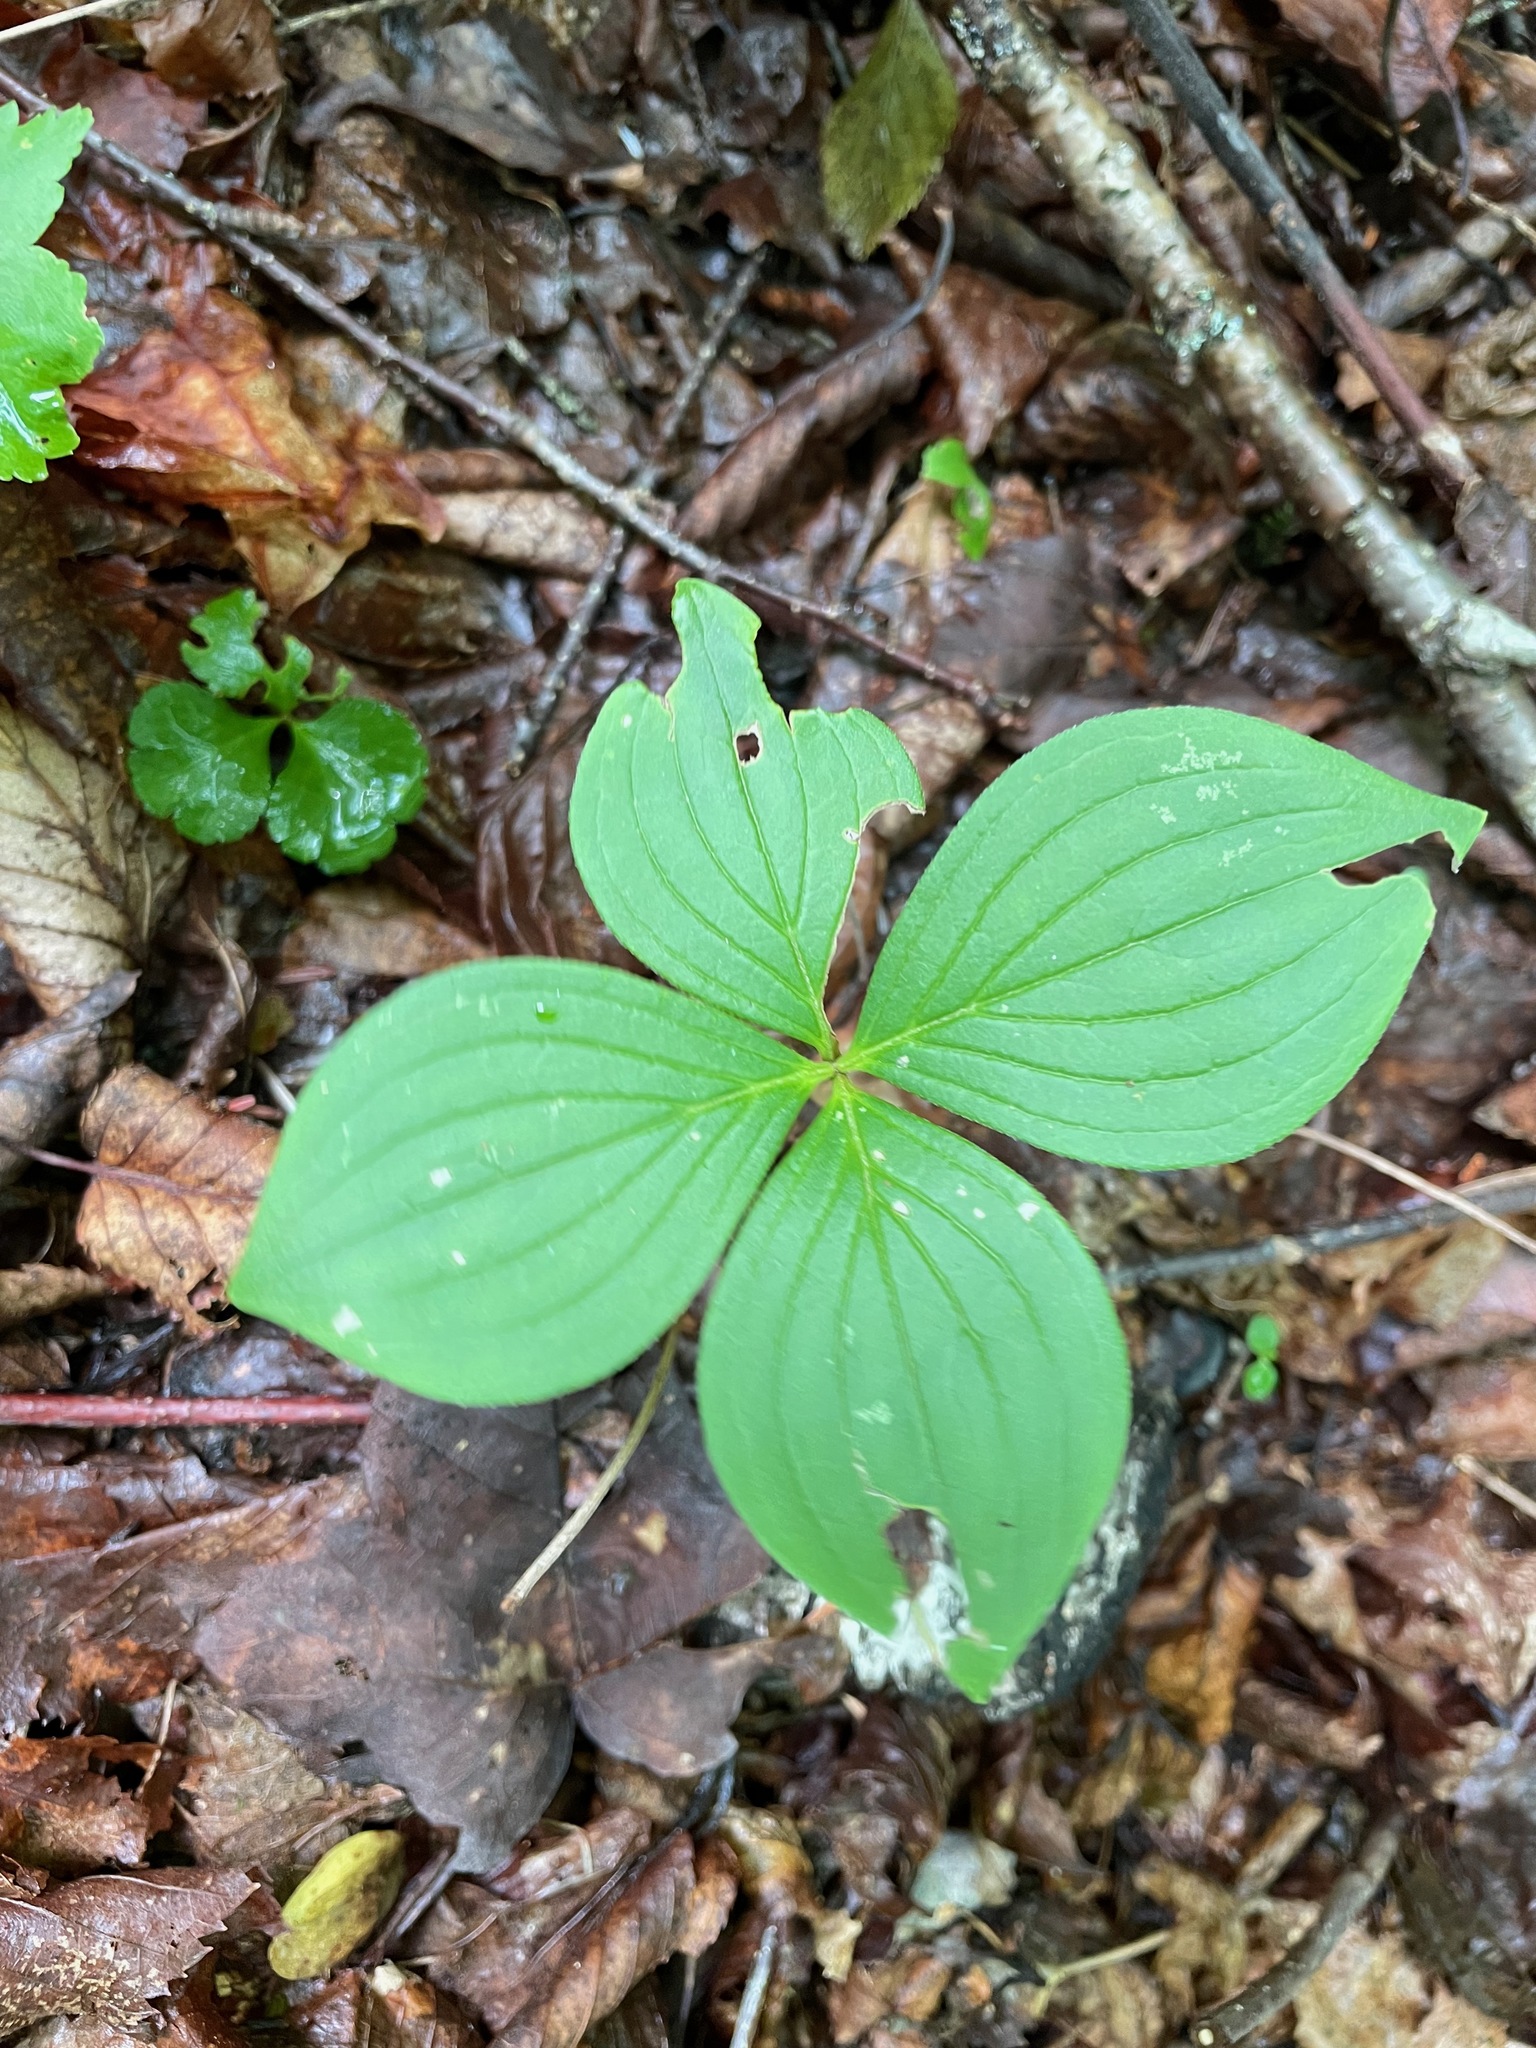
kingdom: Plantae
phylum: Tracheophyta
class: Magnoliopsida
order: Cornales
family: Cornaceae
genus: Cornus
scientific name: Cornus canadensis
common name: Creeping dogwood
